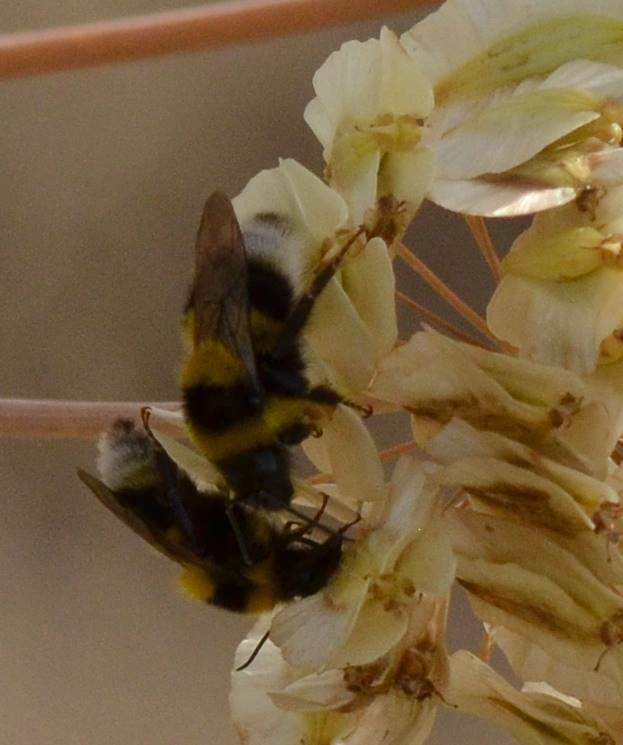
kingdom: Animalia
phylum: Arthropoda
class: Insecta
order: Hymenoptera
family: Apidae
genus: Bombus
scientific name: Bombus ruderatus
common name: Large garden bumblebee
